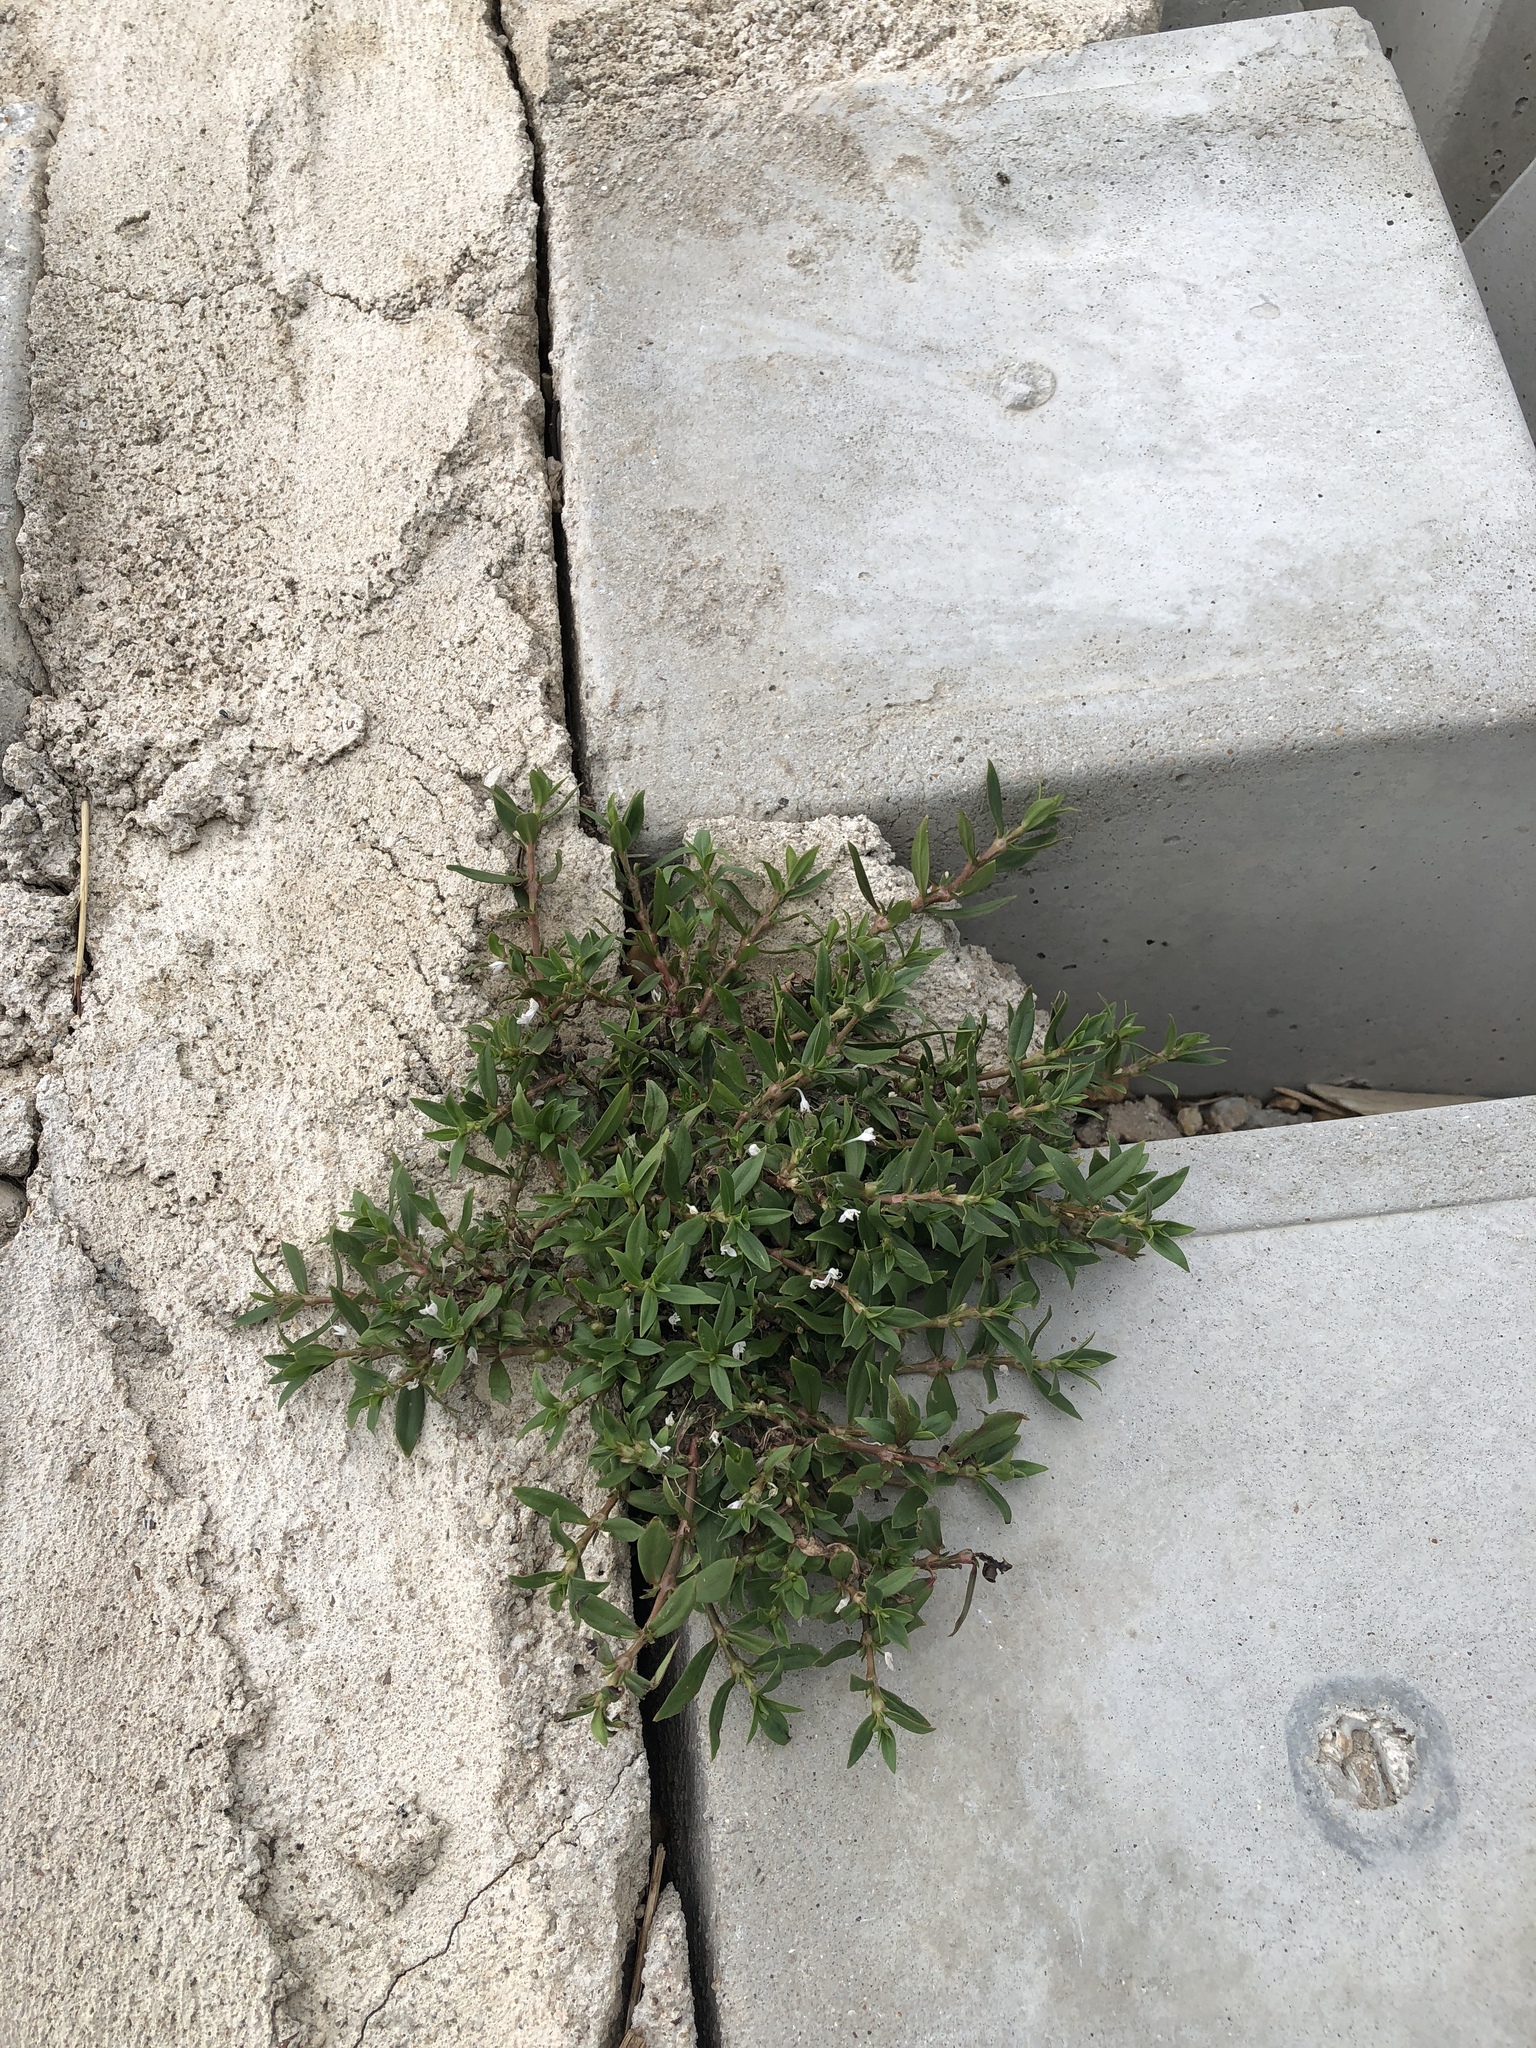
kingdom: Plantae
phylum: Tracheophyta
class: Magnoliopsida
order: Gentianales
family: Rubiaceae
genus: Diodia
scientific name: Diodia virginiana
